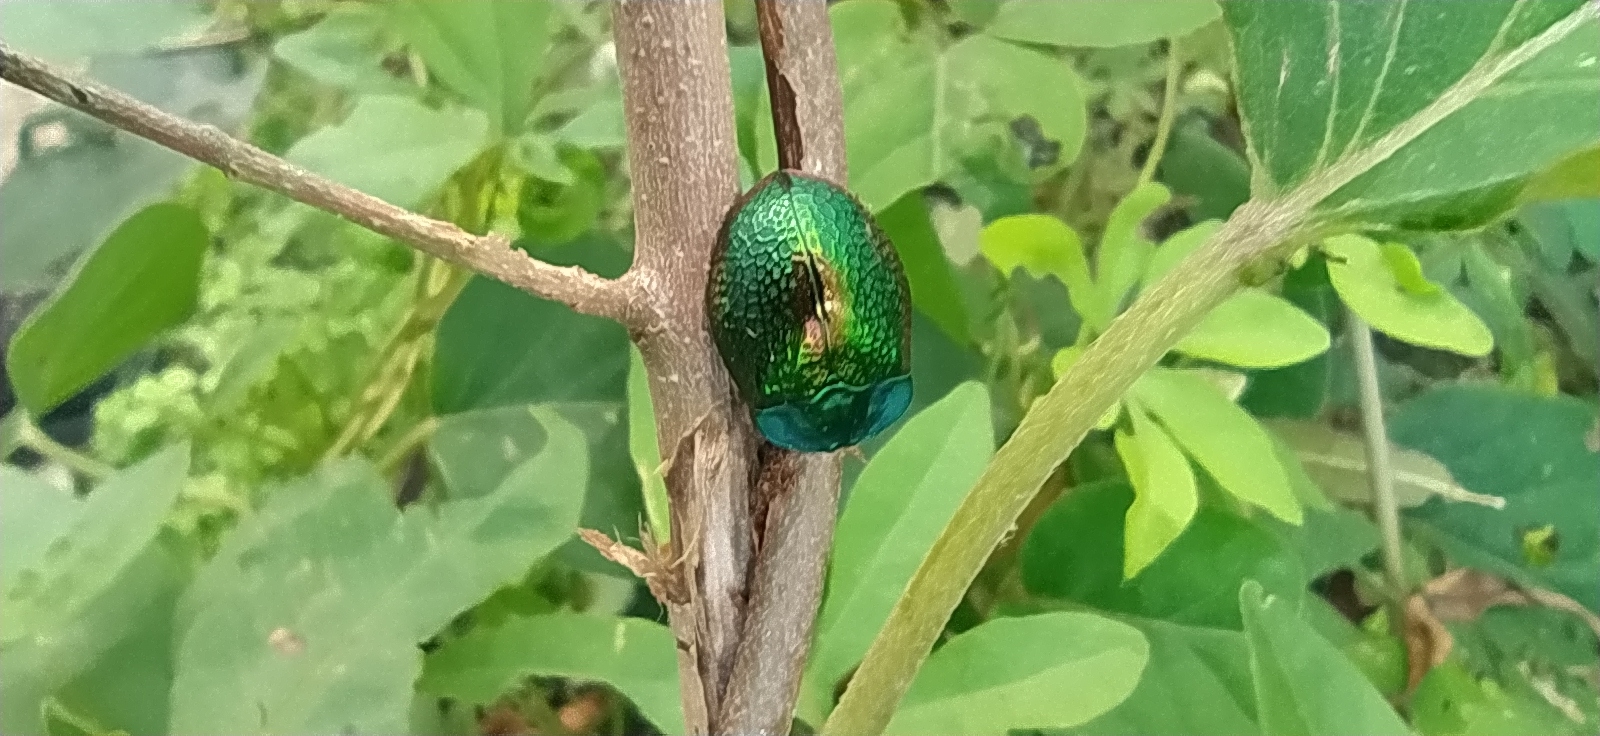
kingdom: Animalia
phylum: Arthropoda
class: Insecta
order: Coleoptera
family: Chrysomelidae
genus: Stolas
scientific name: Stolas festiva
